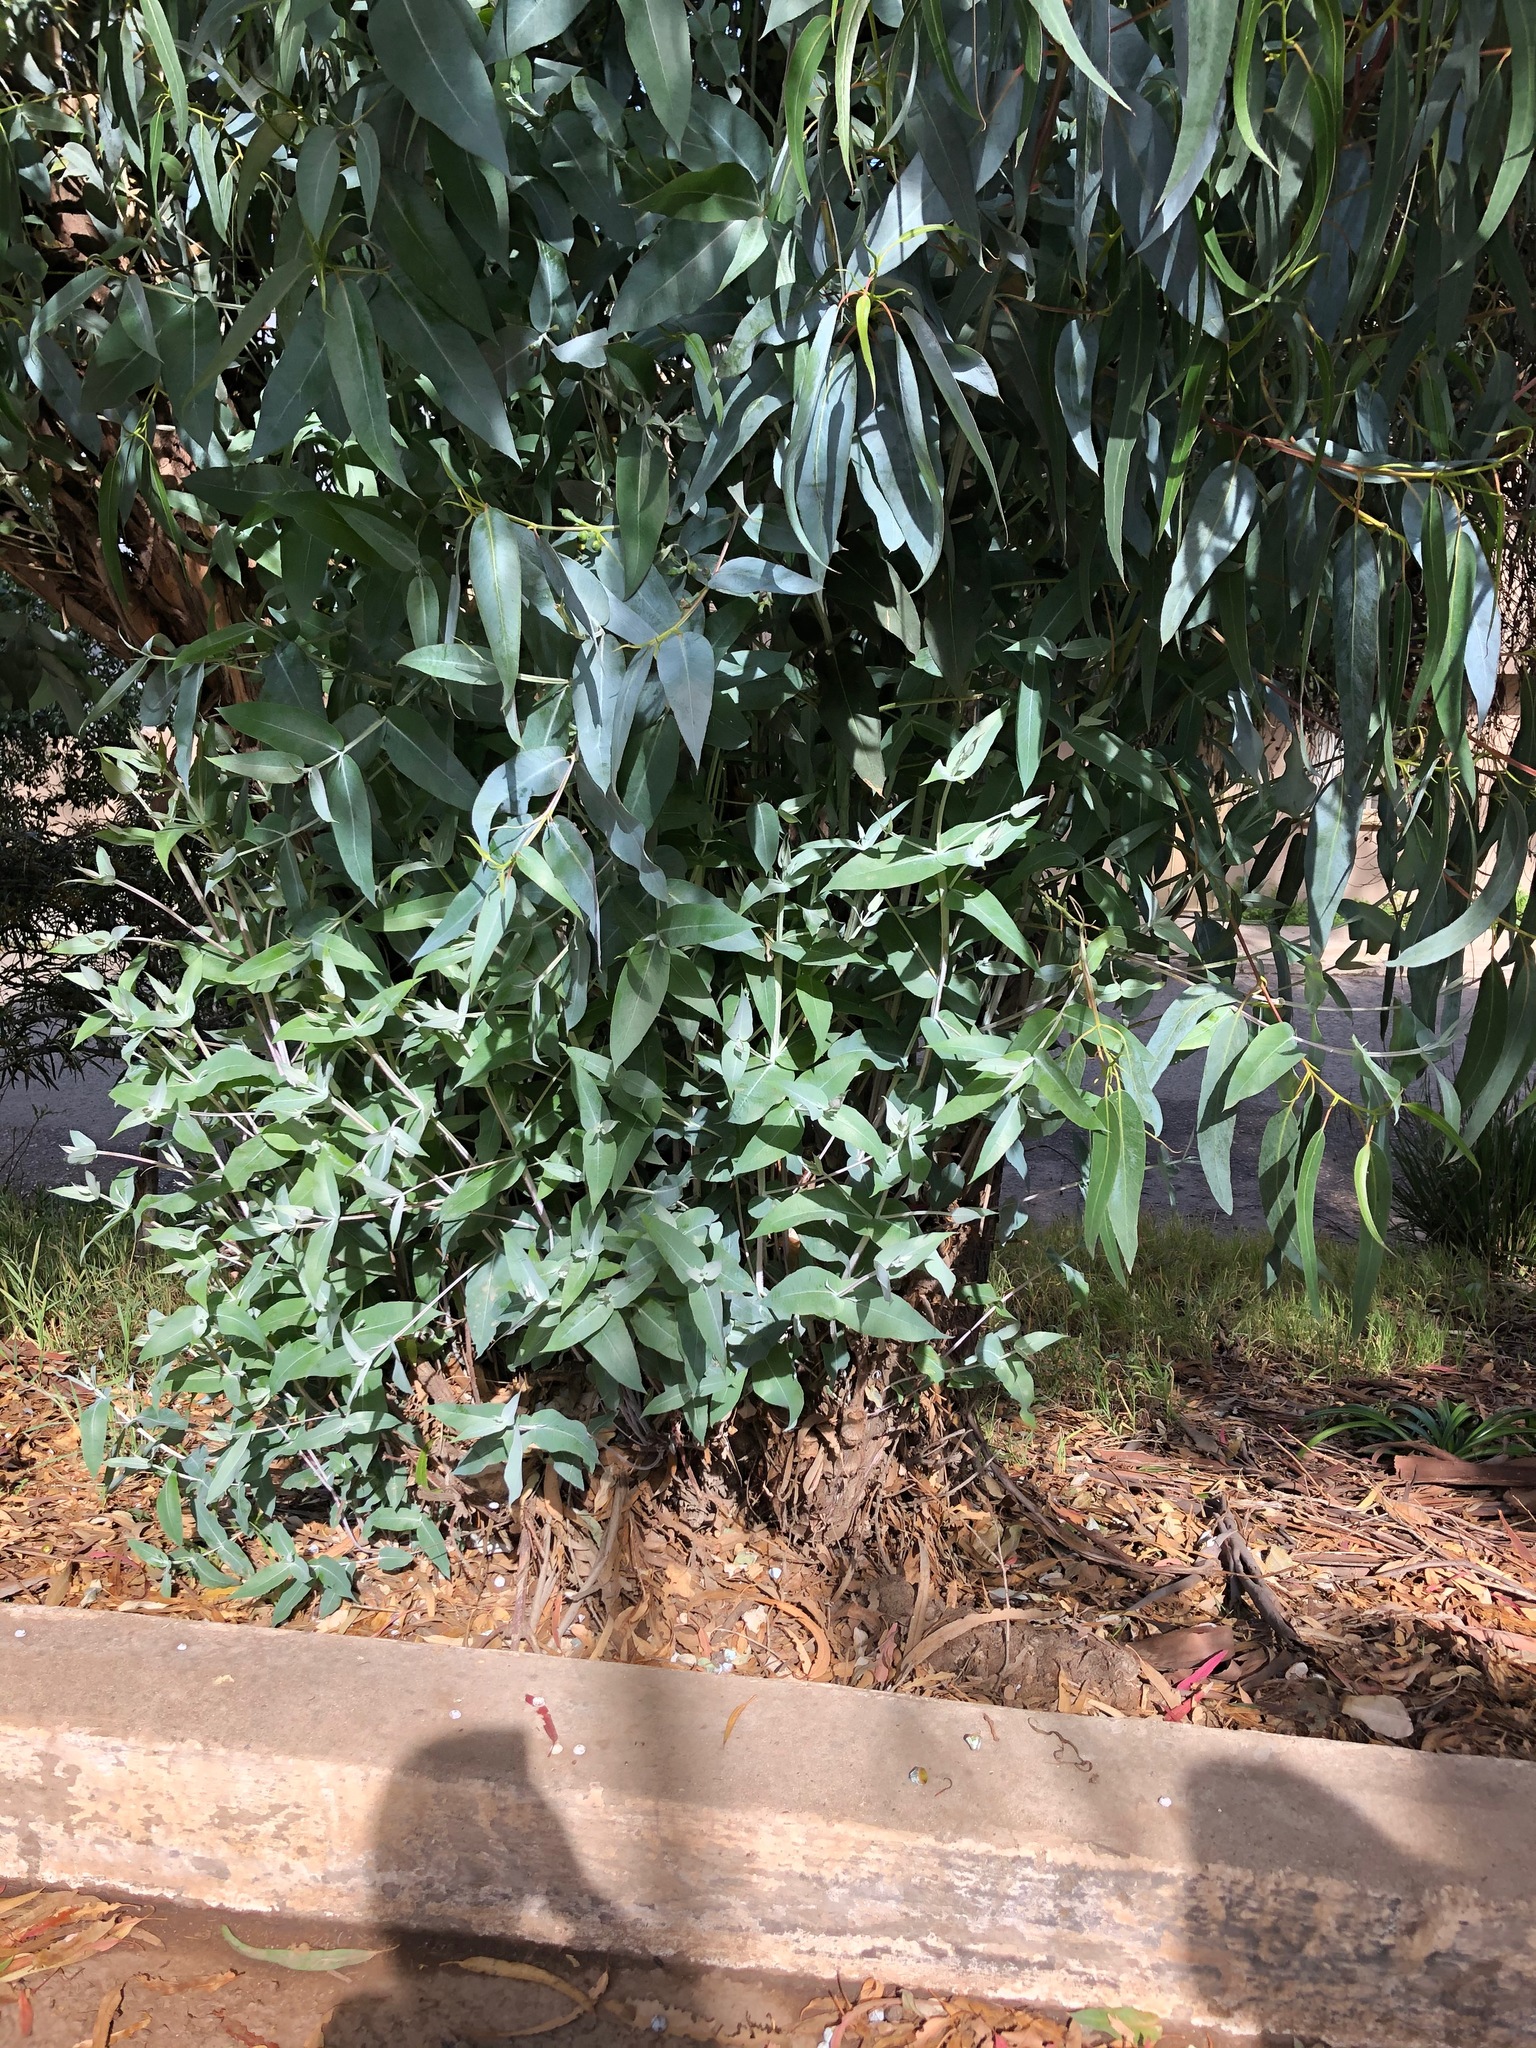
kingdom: Plantae
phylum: Tracheophyta
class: Magnoliopsida
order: Myrtales
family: Myrtaceae
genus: Eucalyptus
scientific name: Eucalyptus globulus
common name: Southern blue-gum
